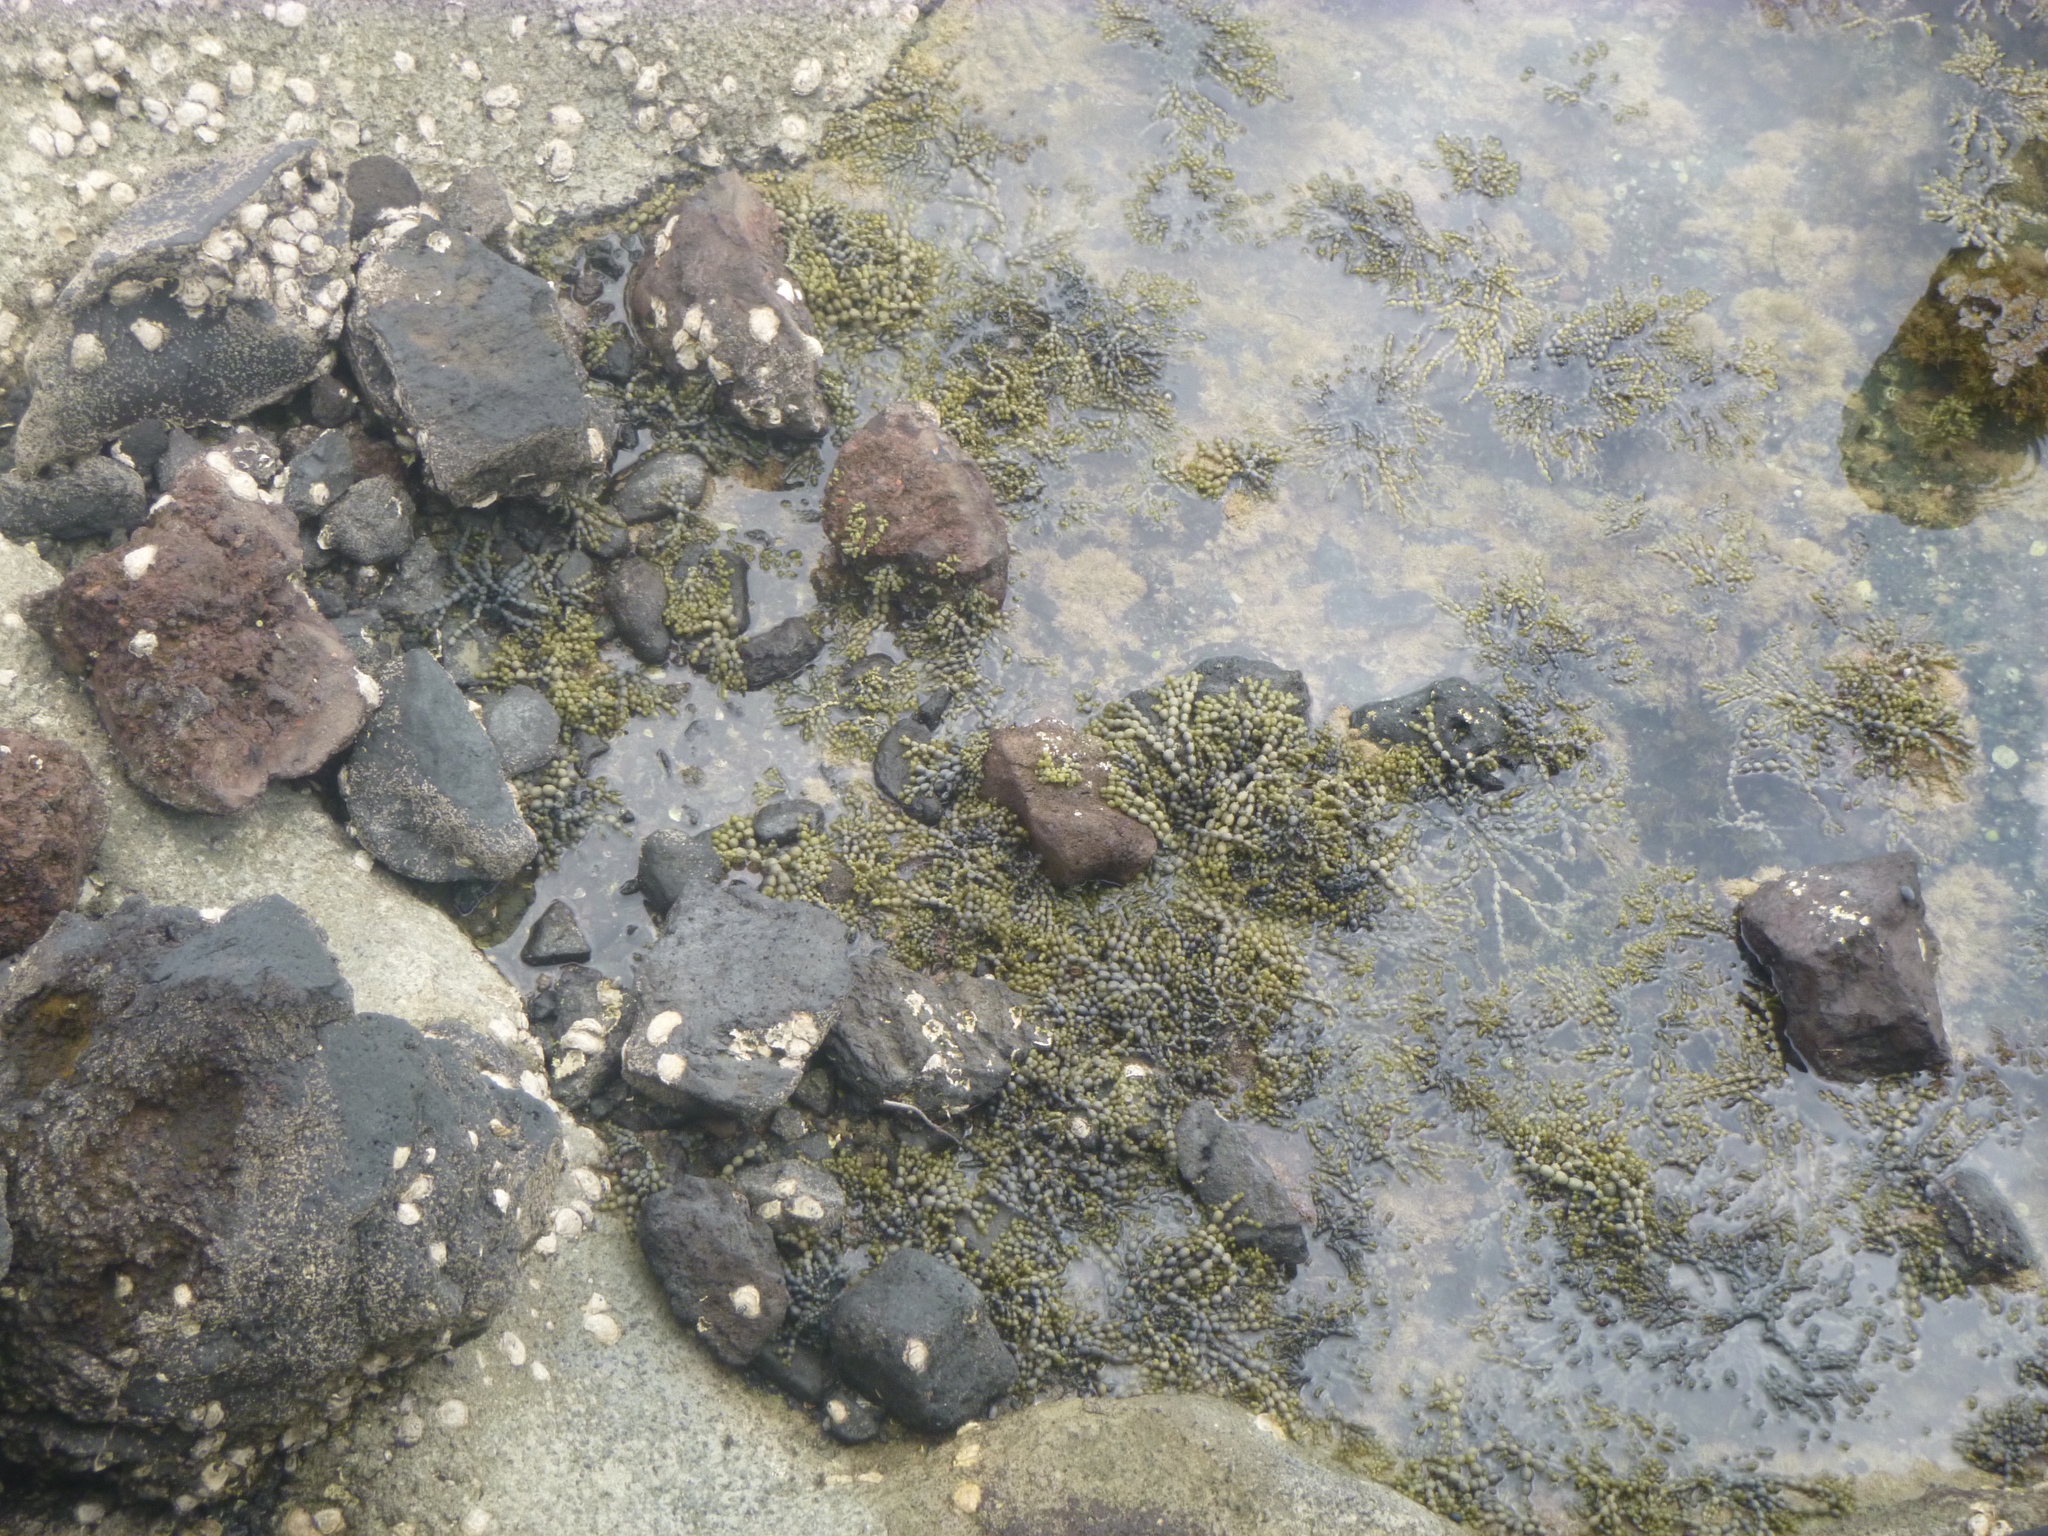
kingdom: Chromista
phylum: Ochrophyta
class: Phaeophyceae
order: Fucales
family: Hormosiraceae
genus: Hormosira
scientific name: Hormosira banksii
